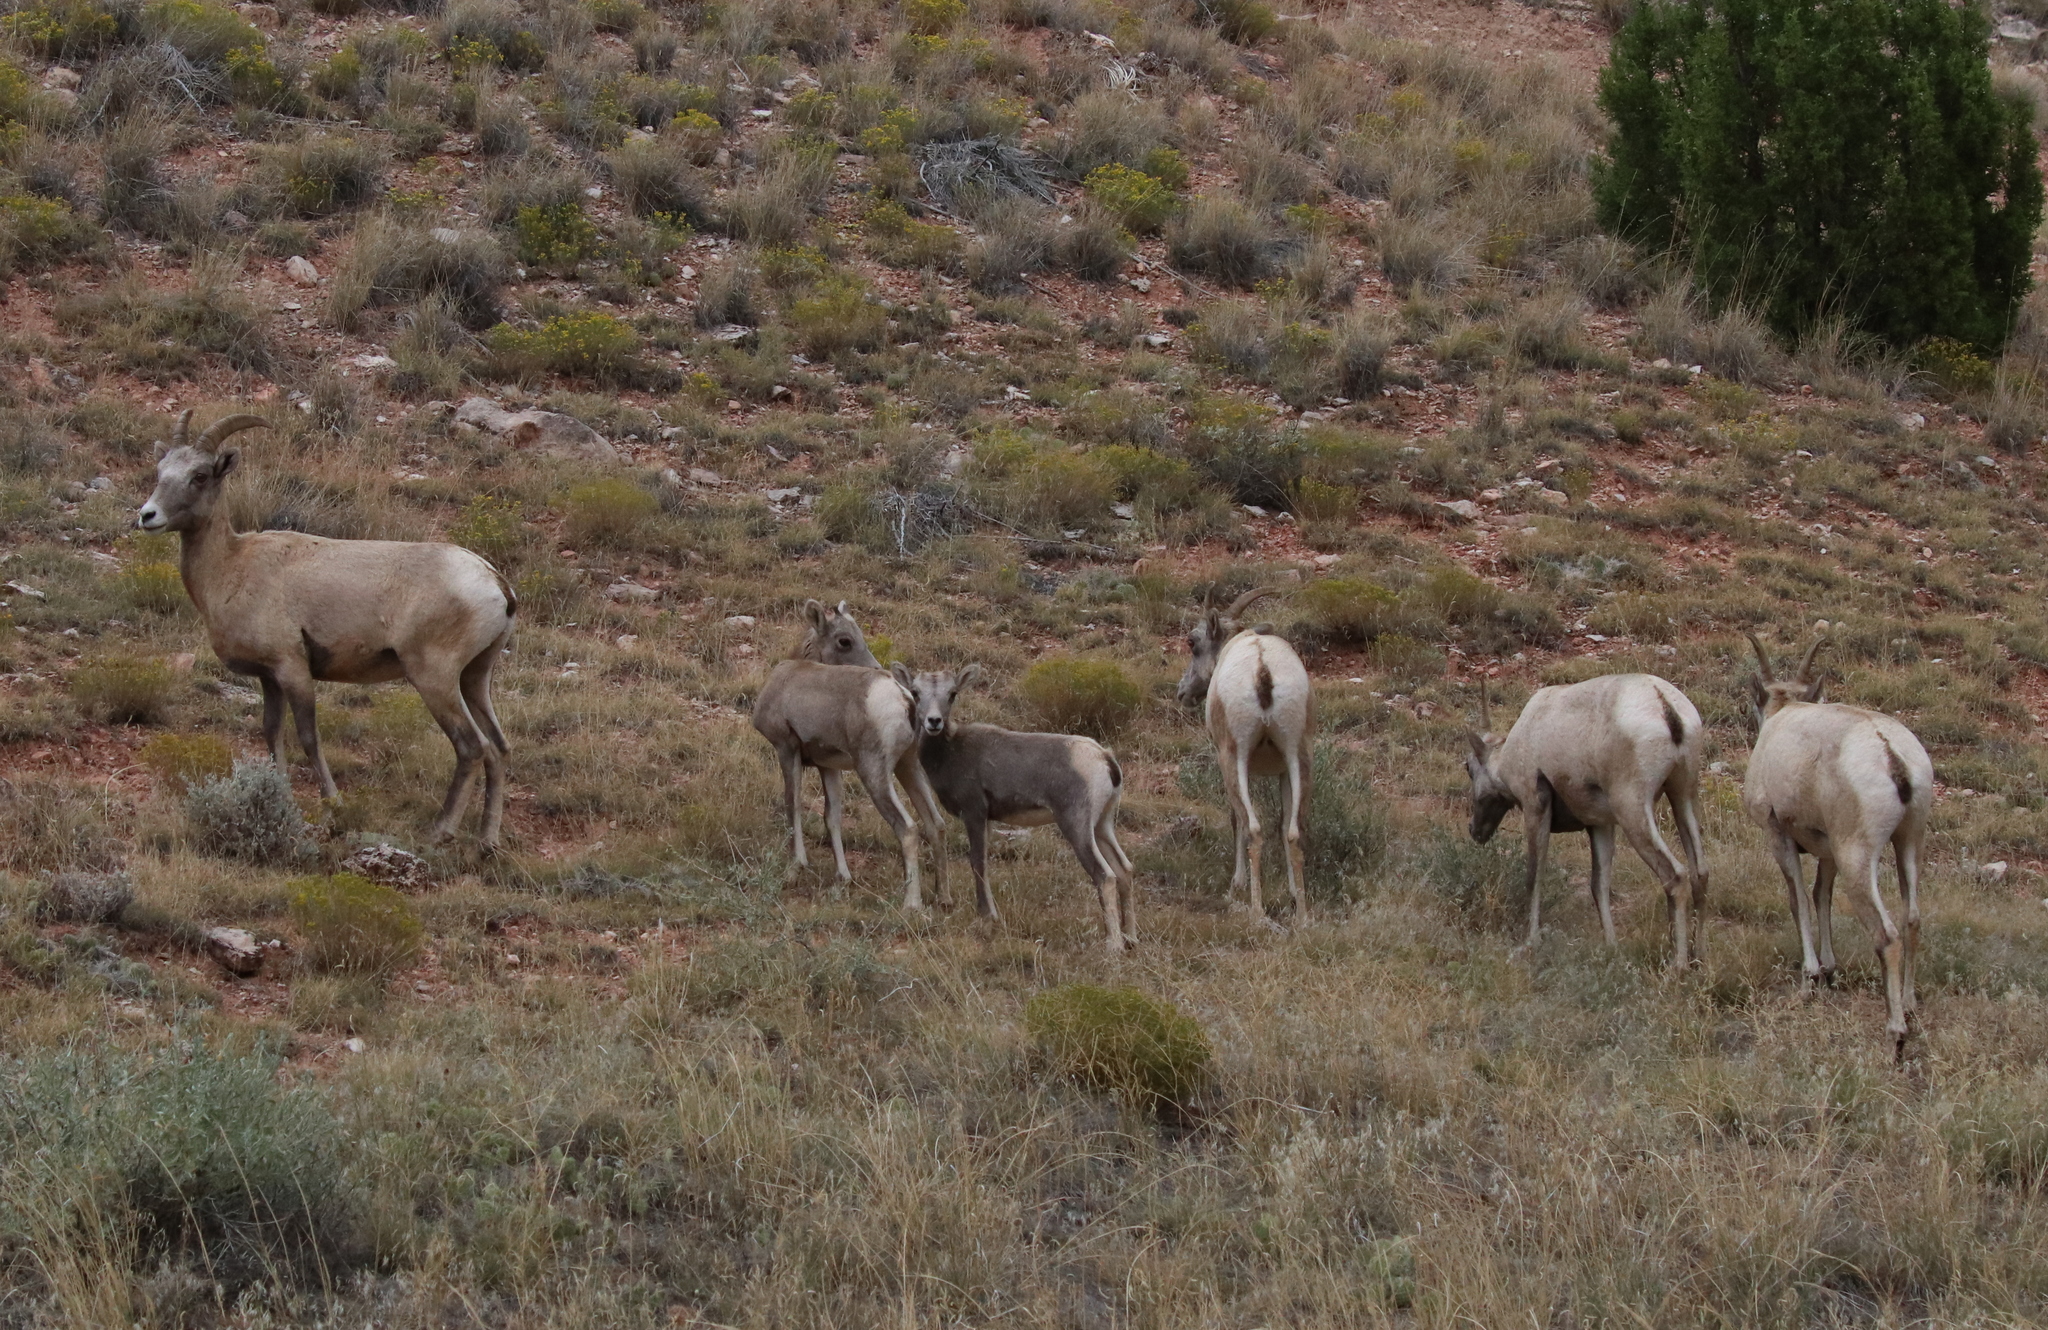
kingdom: Animalia
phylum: Chordata
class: Mammalia
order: Artiodactyla
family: Bovidae
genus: Ovis
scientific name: Ovis canadensis
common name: Bighorn sheep
